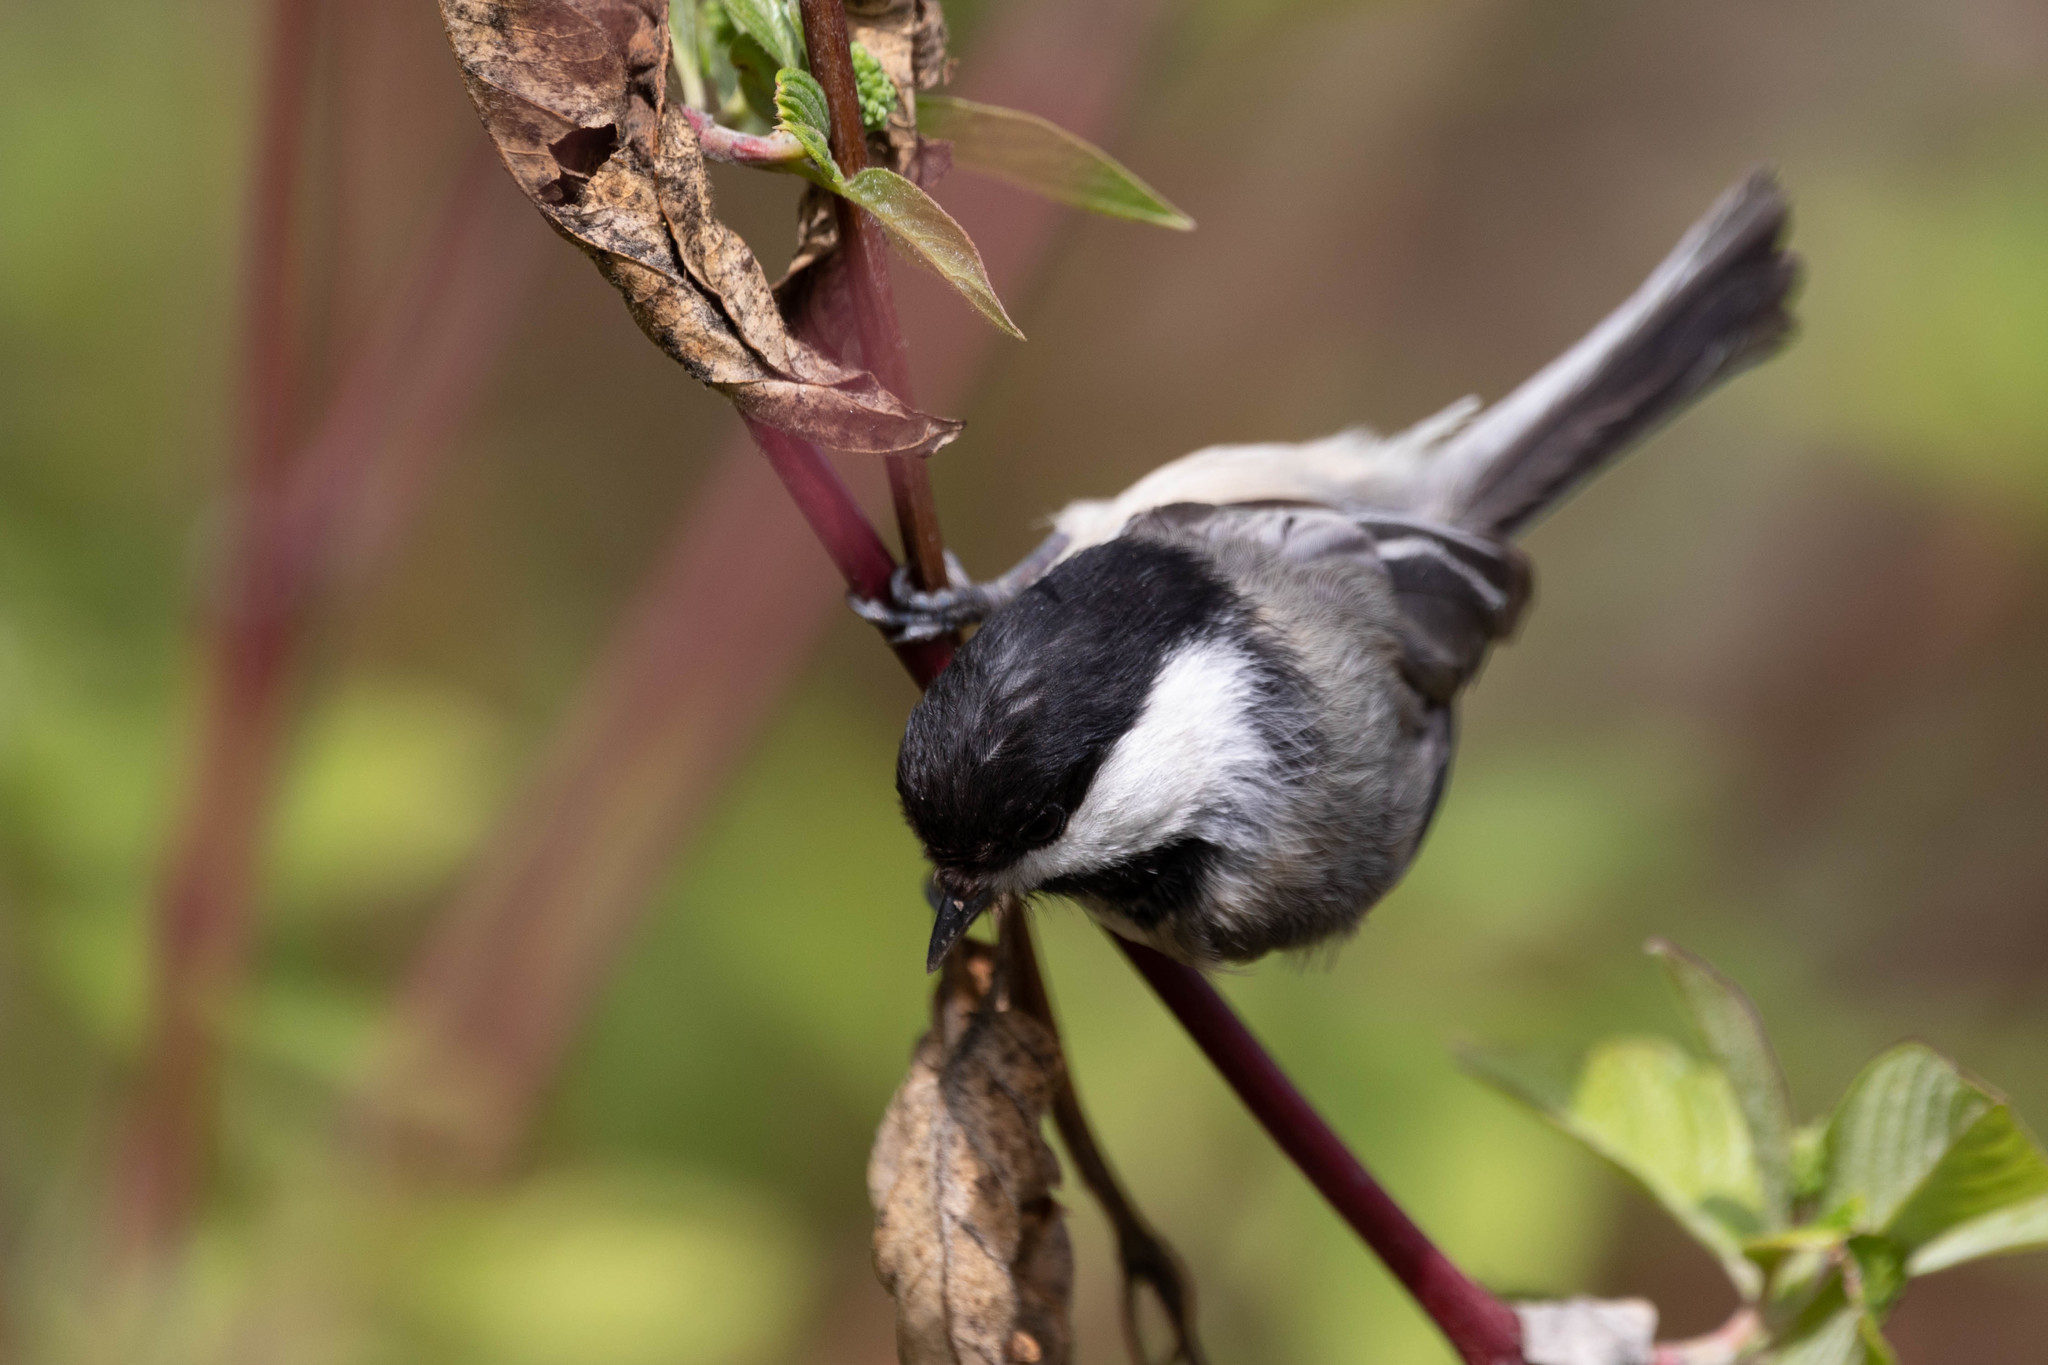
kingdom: Animalia
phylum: Chordata
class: Aves
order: Passeriformes
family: Paridae
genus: Poecile
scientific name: Poecile atricapillus
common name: Black-capped chickadee
